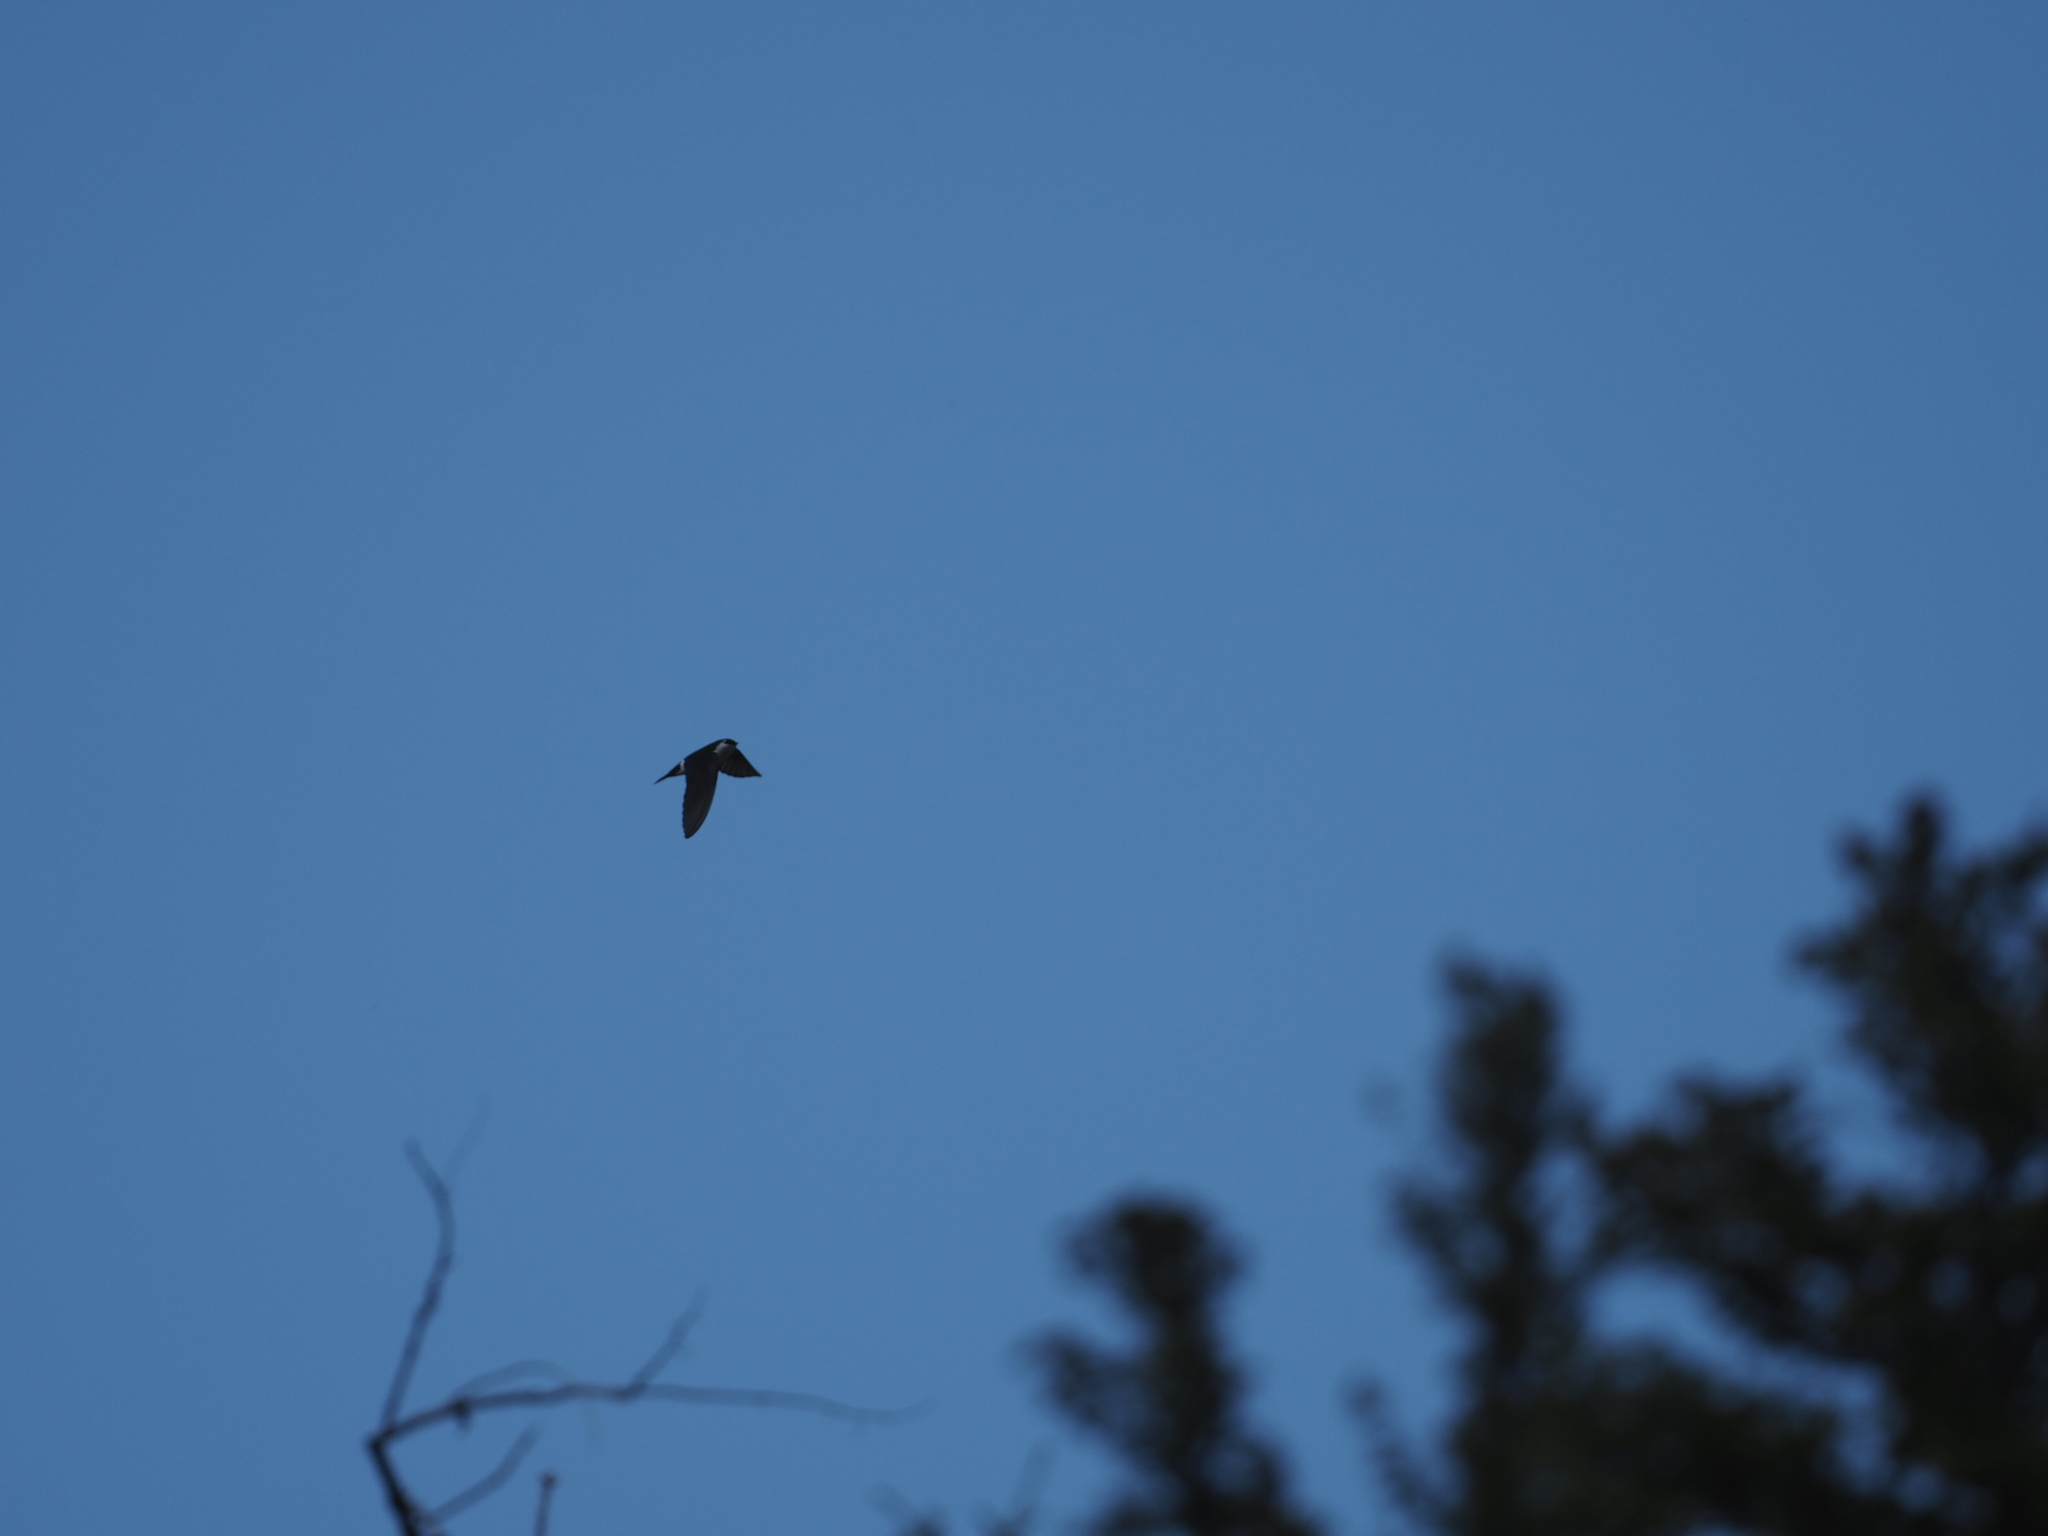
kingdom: Animalia
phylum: Chordata
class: Aves
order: Passeriformes
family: Hirundinidae
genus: Tachycineta
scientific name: Tachycineta thalassina
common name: Violet-green swallow
